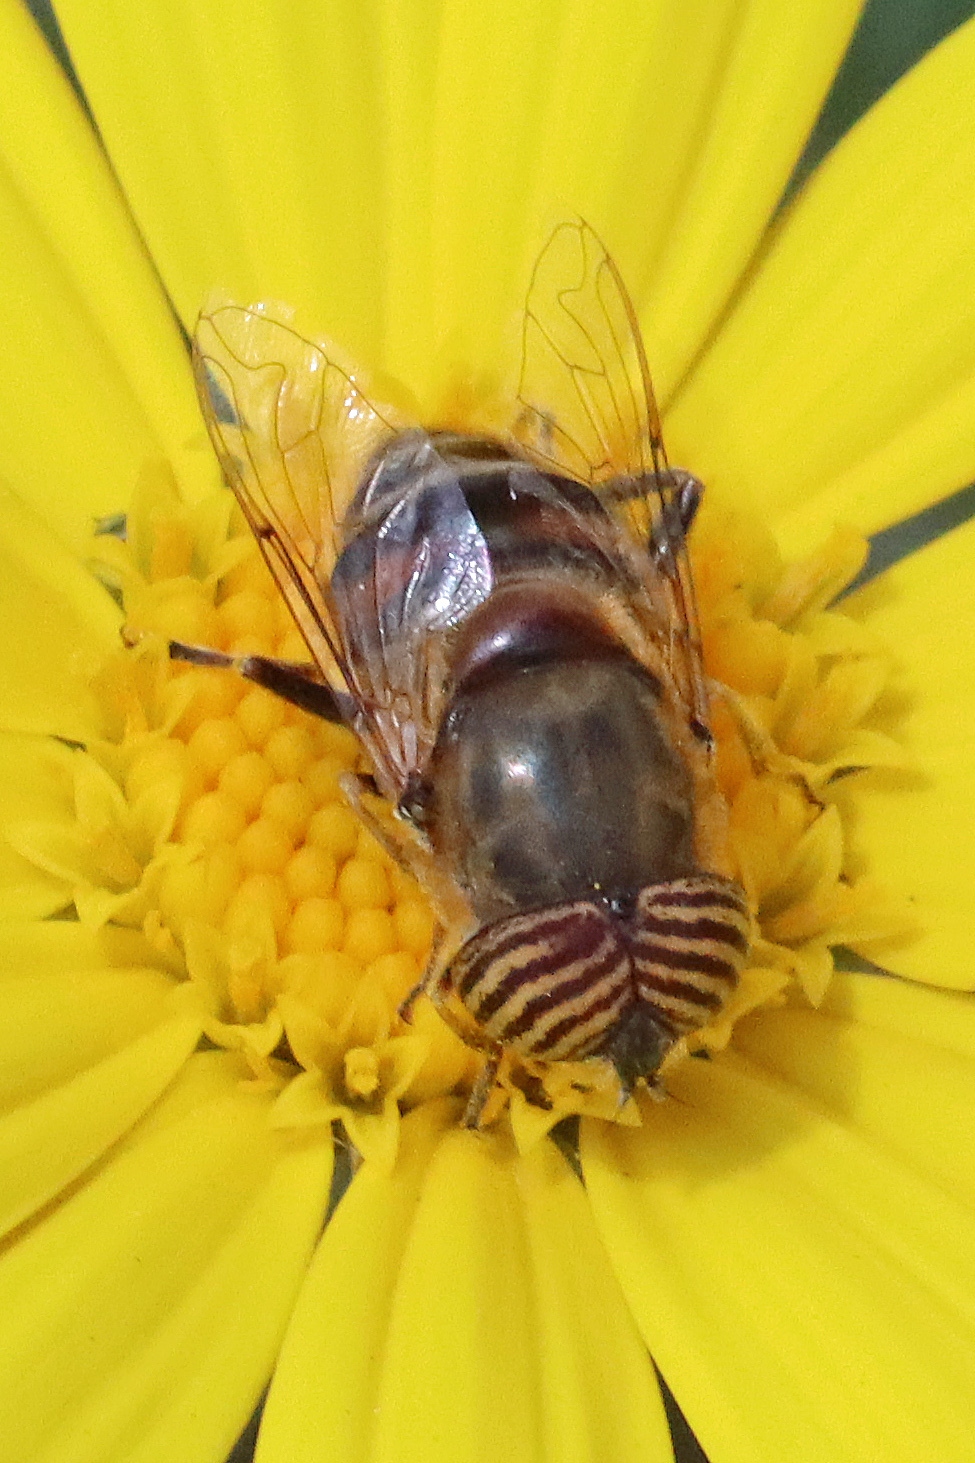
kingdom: Animalia
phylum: Arthropoda
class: Insecta
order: Diptera
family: Syrphidae
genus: Eristalinus
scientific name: Eristalinus taeniops
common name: Syrphid fly
